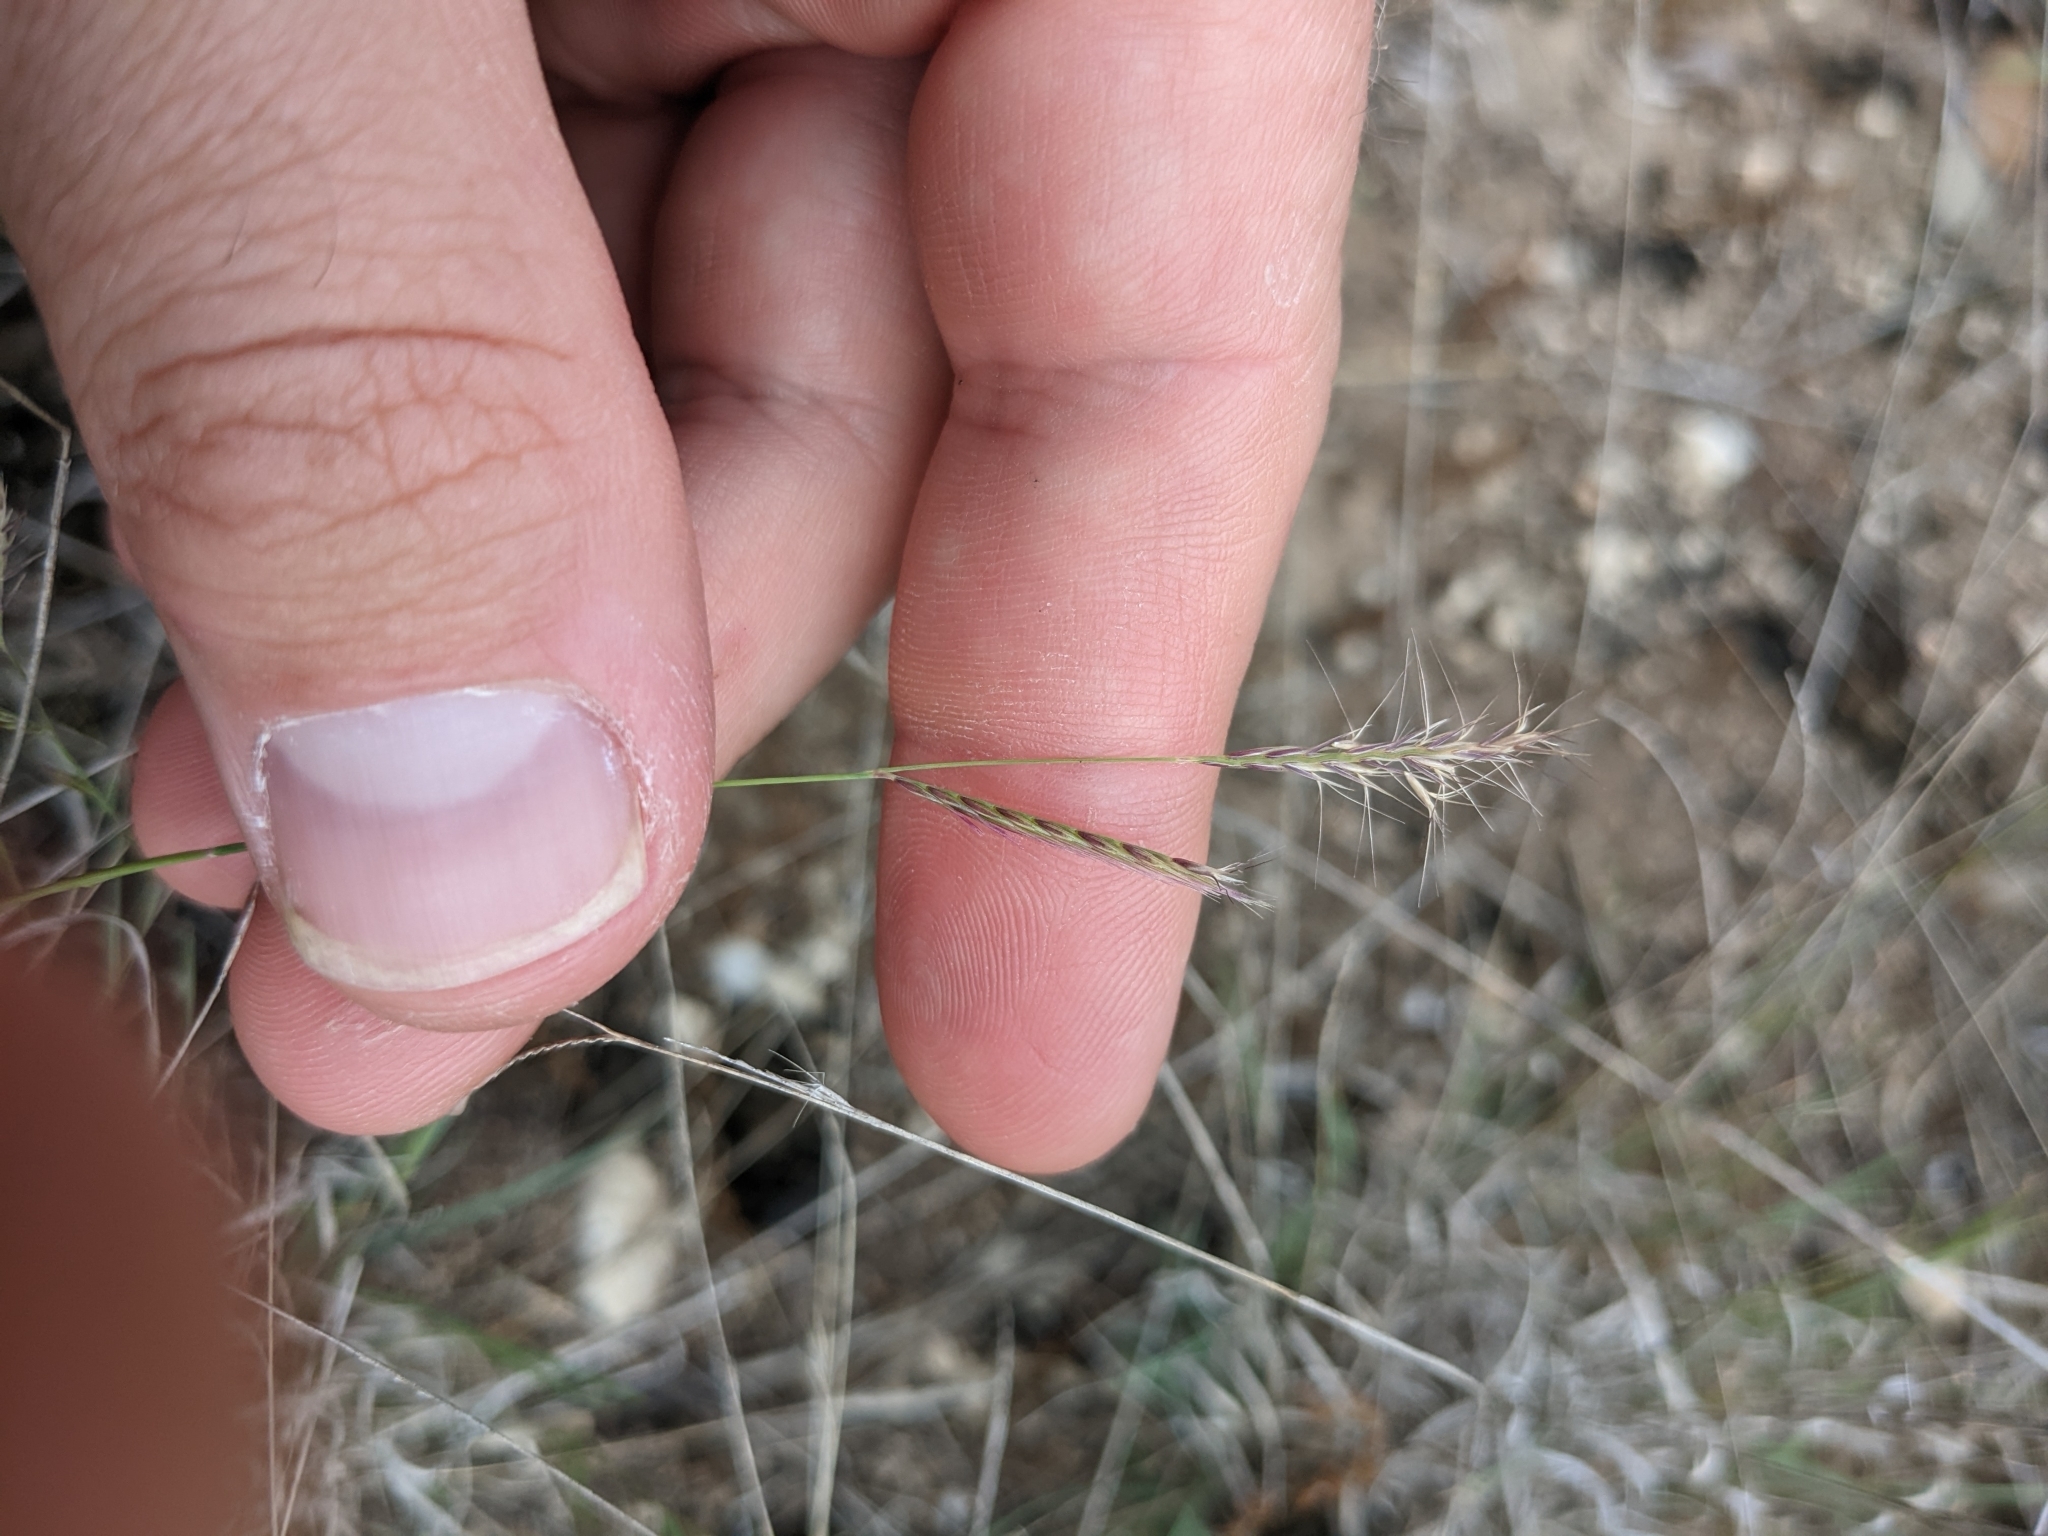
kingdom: Plantae
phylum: Tracheophyta
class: Liliopsida
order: Poales
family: Poaceae
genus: Bouteloua
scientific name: Bouteloua trifida
